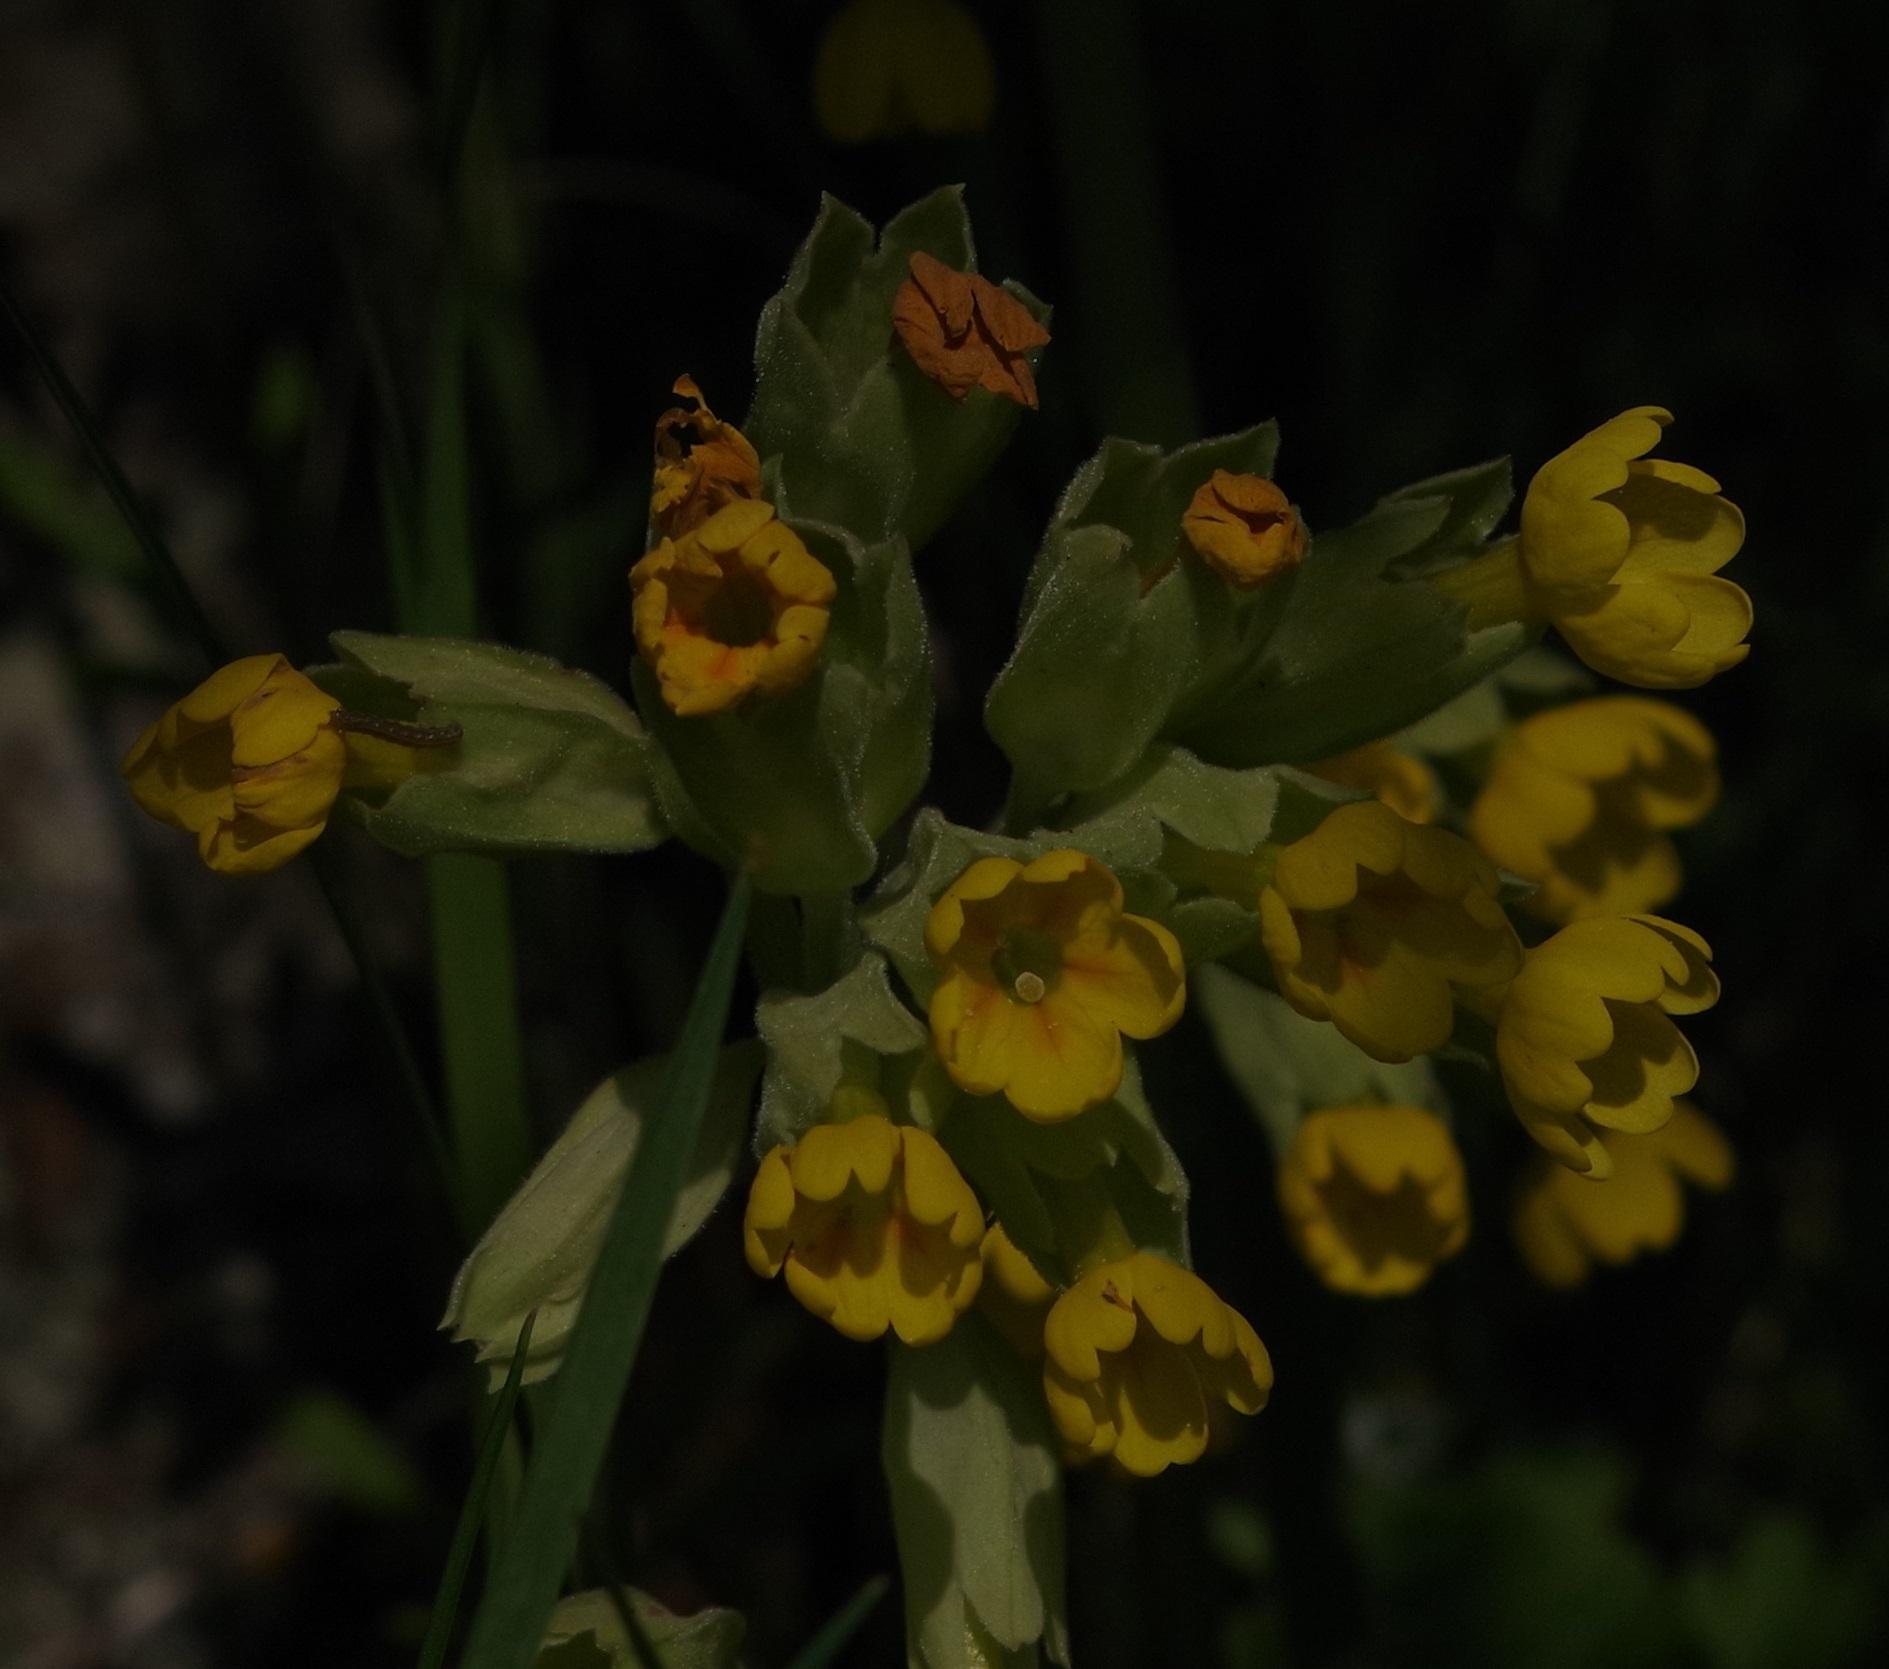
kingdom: Plantae
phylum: Tracheophyta
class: Magnoliopsida
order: Ericales
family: Primulaceae
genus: Primula
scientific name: Primula veris
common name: Cowslip
